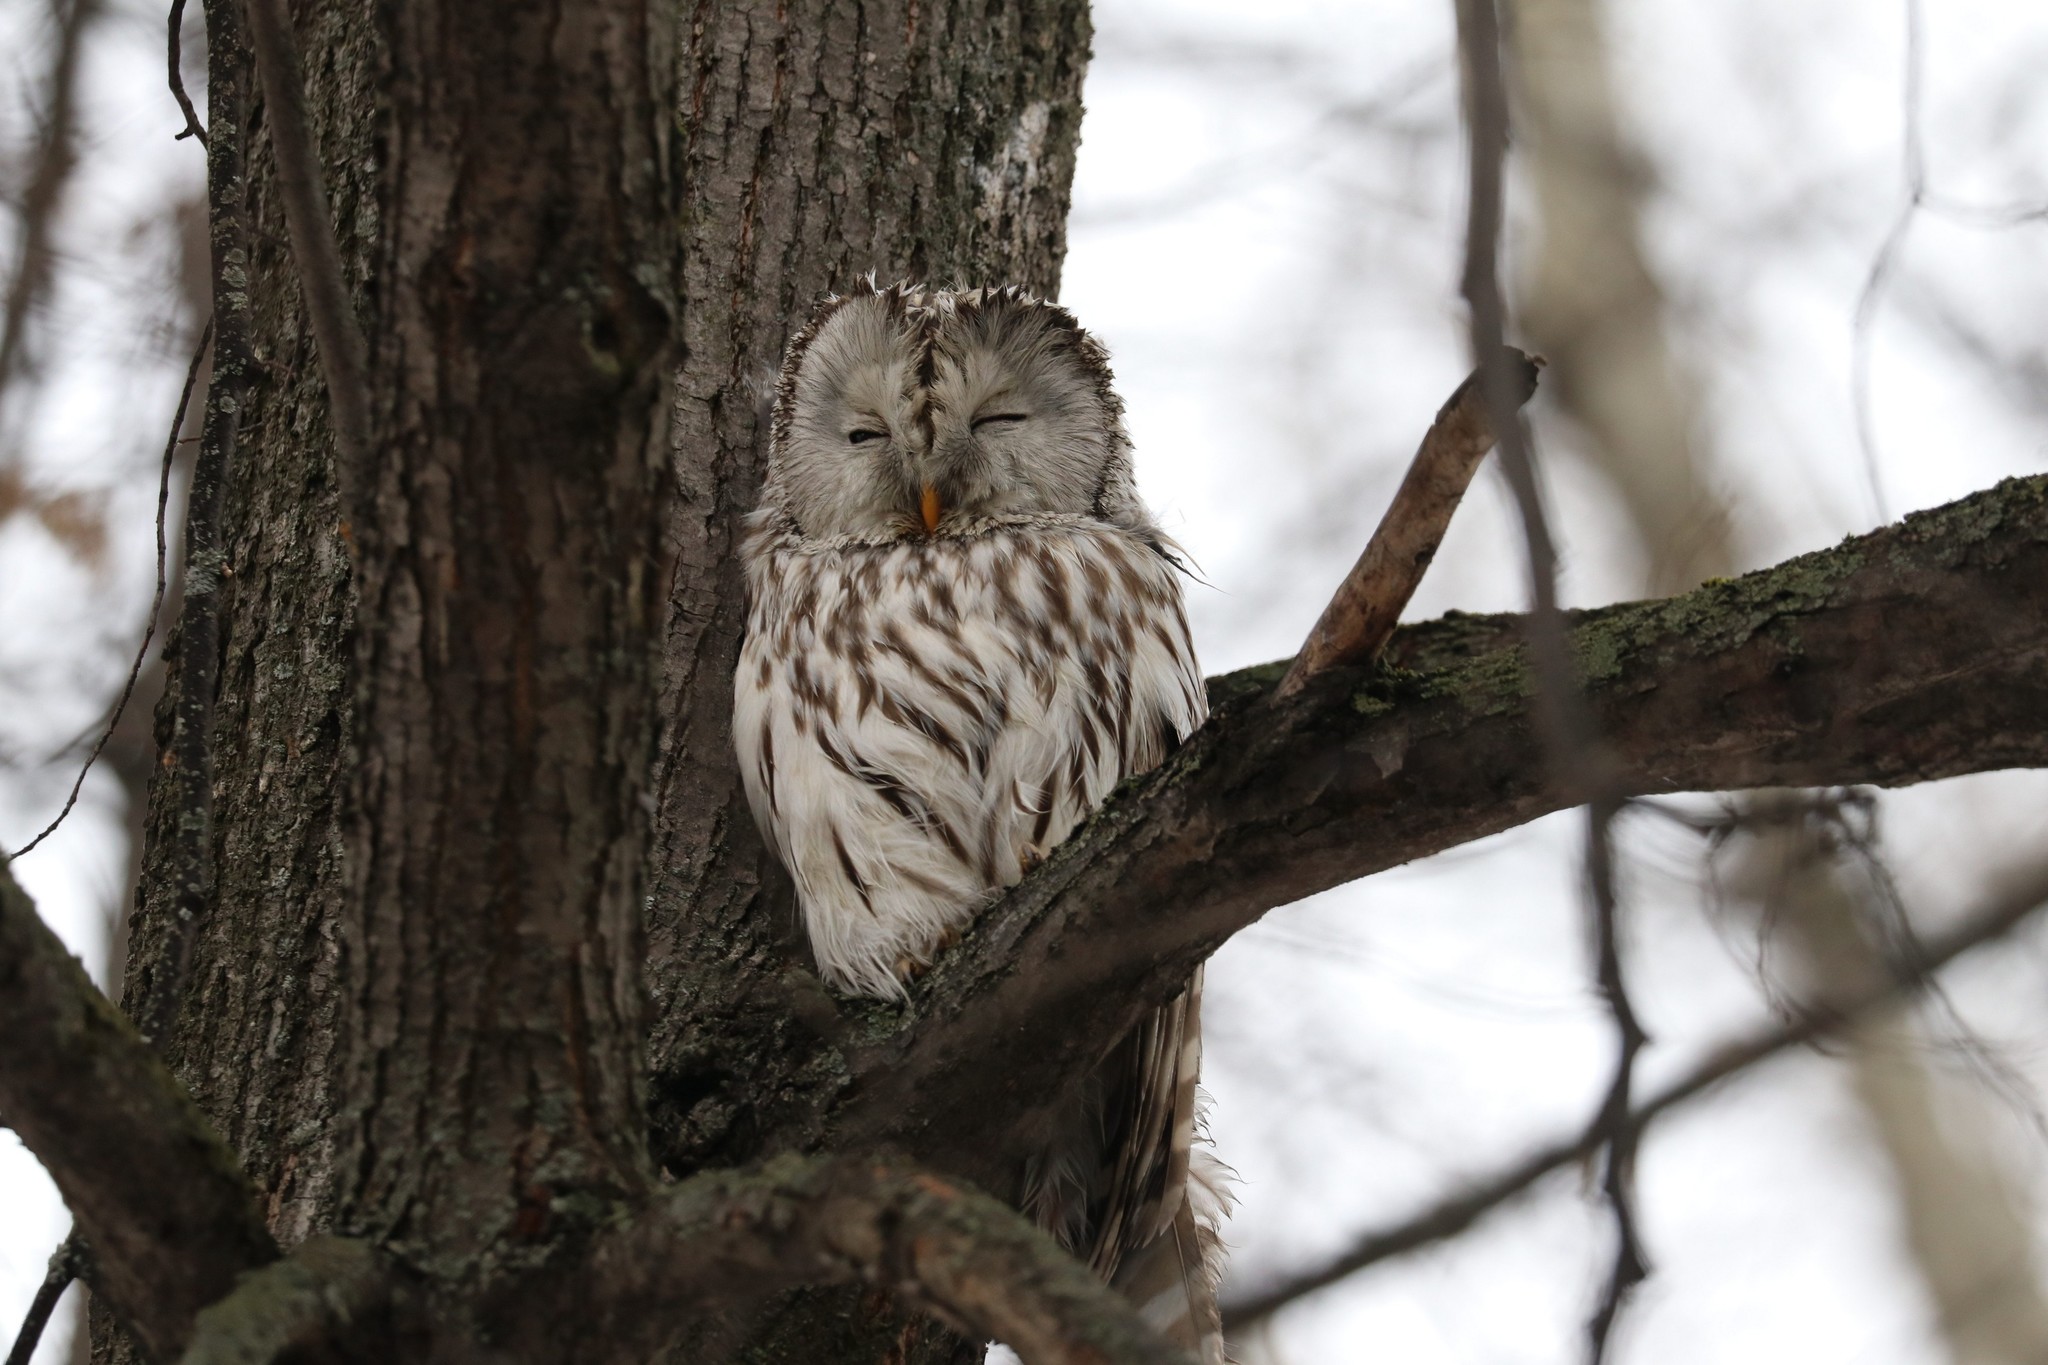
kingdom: Animalia
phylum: Chordata
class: Aves
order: Strigiformes
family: Strigidae
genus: Strix
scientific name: Strix uralensis
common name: Ural owl
